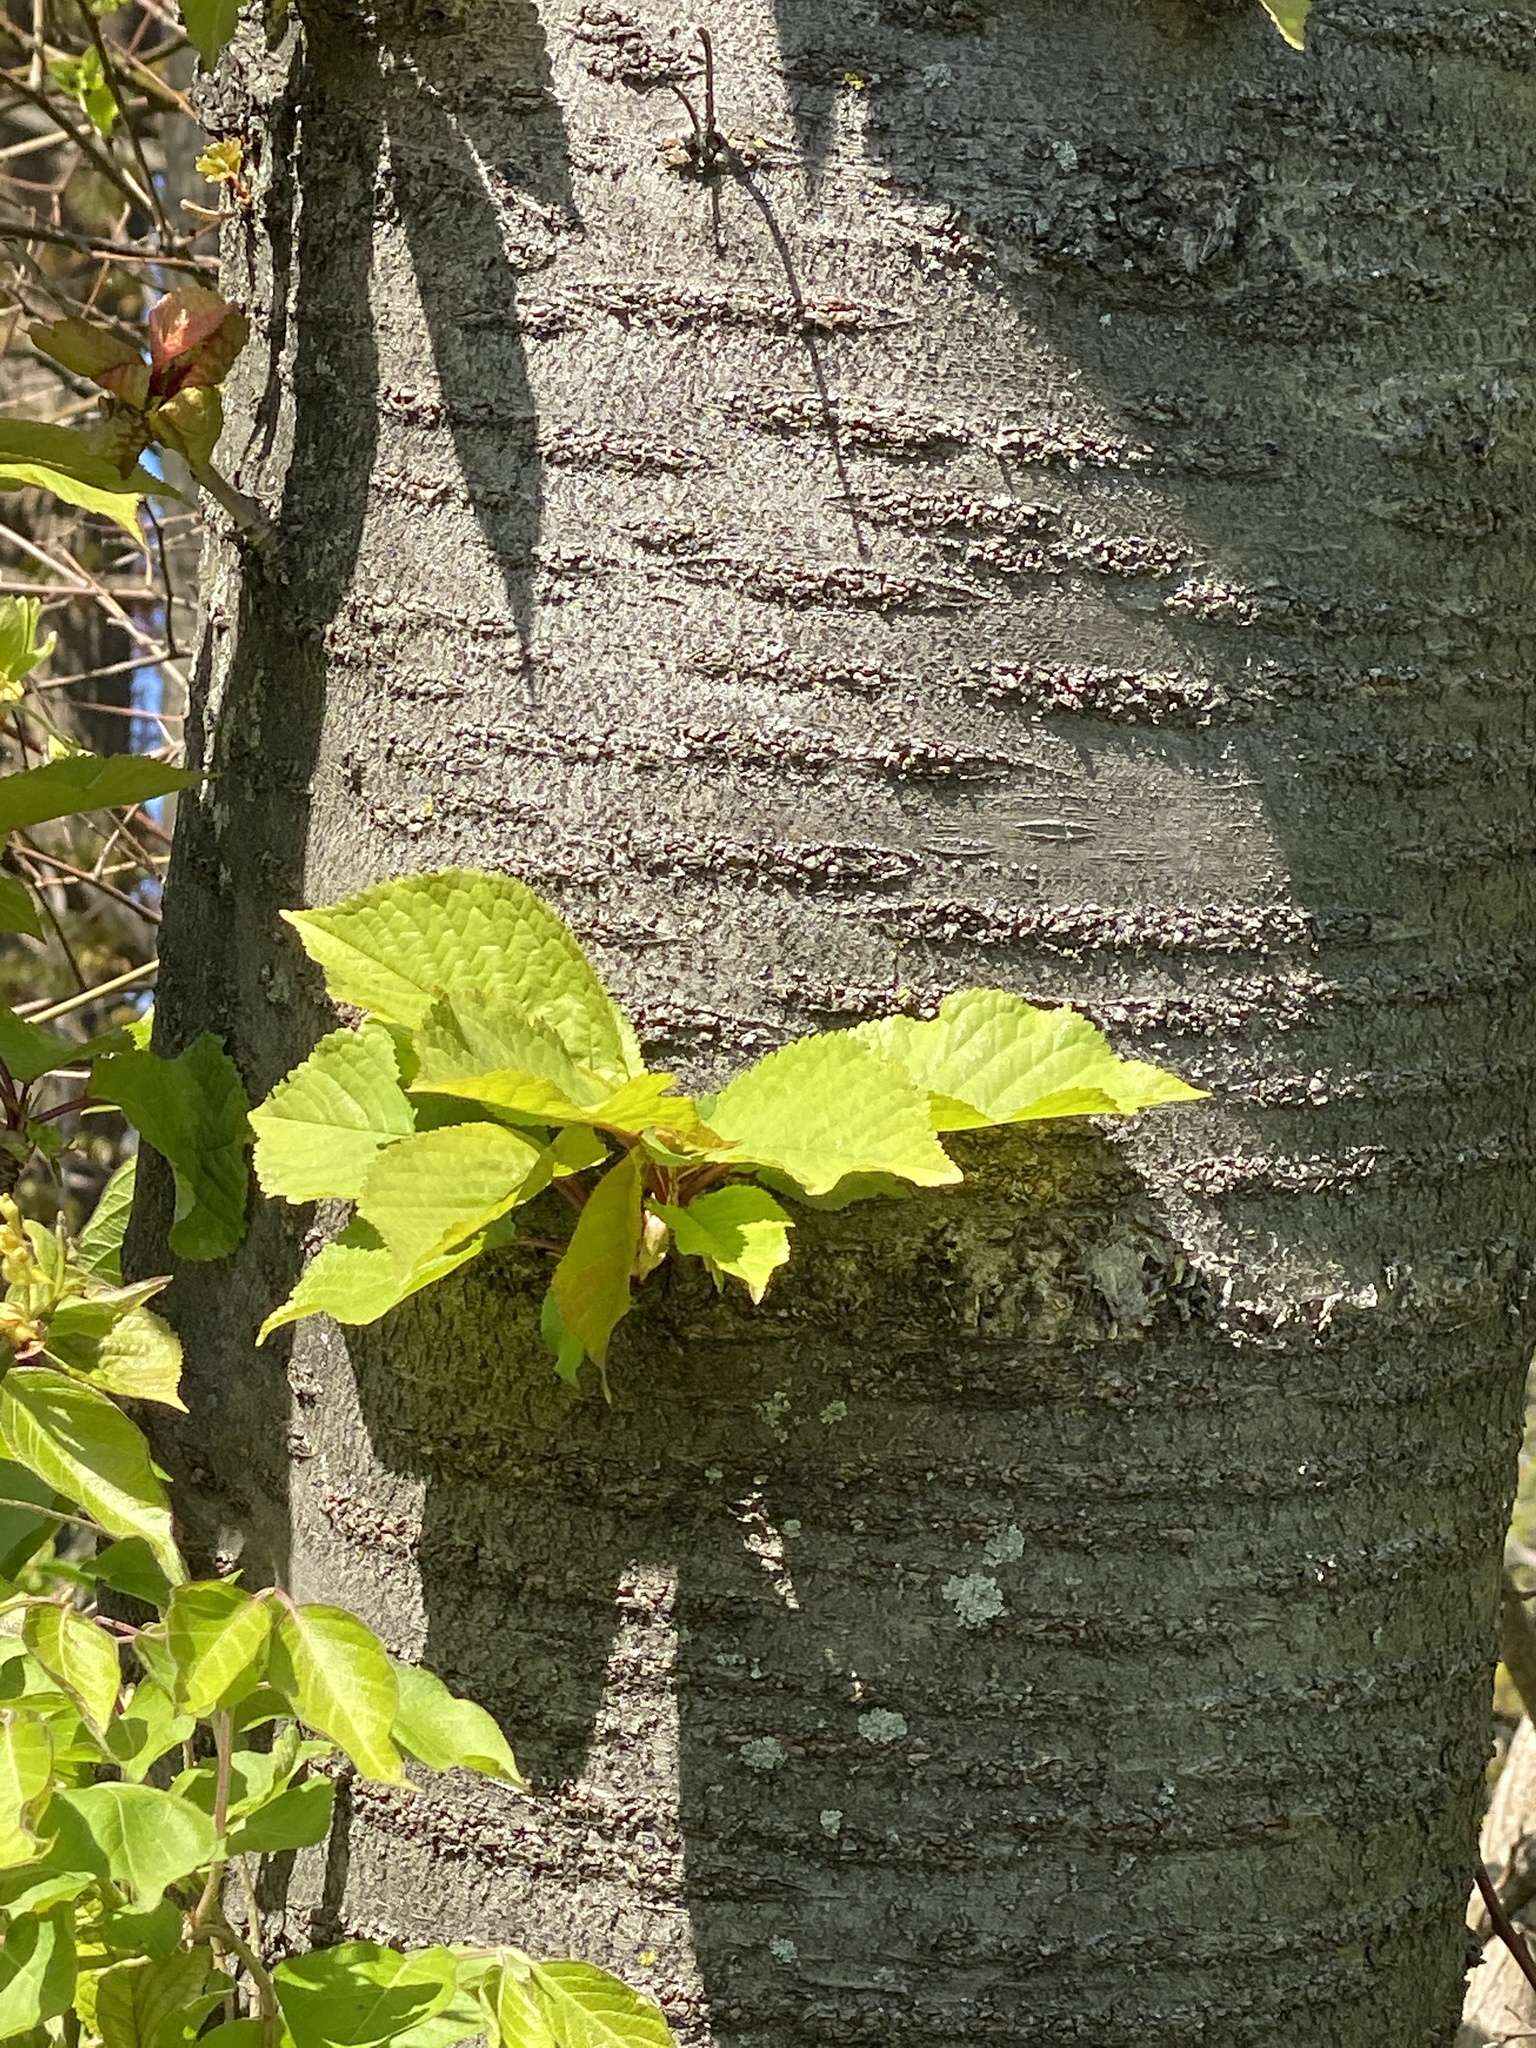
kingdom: Plantae
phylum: Tracheophyta
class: Magnoliopsida
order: Rosales
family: Rosaceae
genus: Prunus
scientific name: Prunus avium
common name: Sweet cherry
